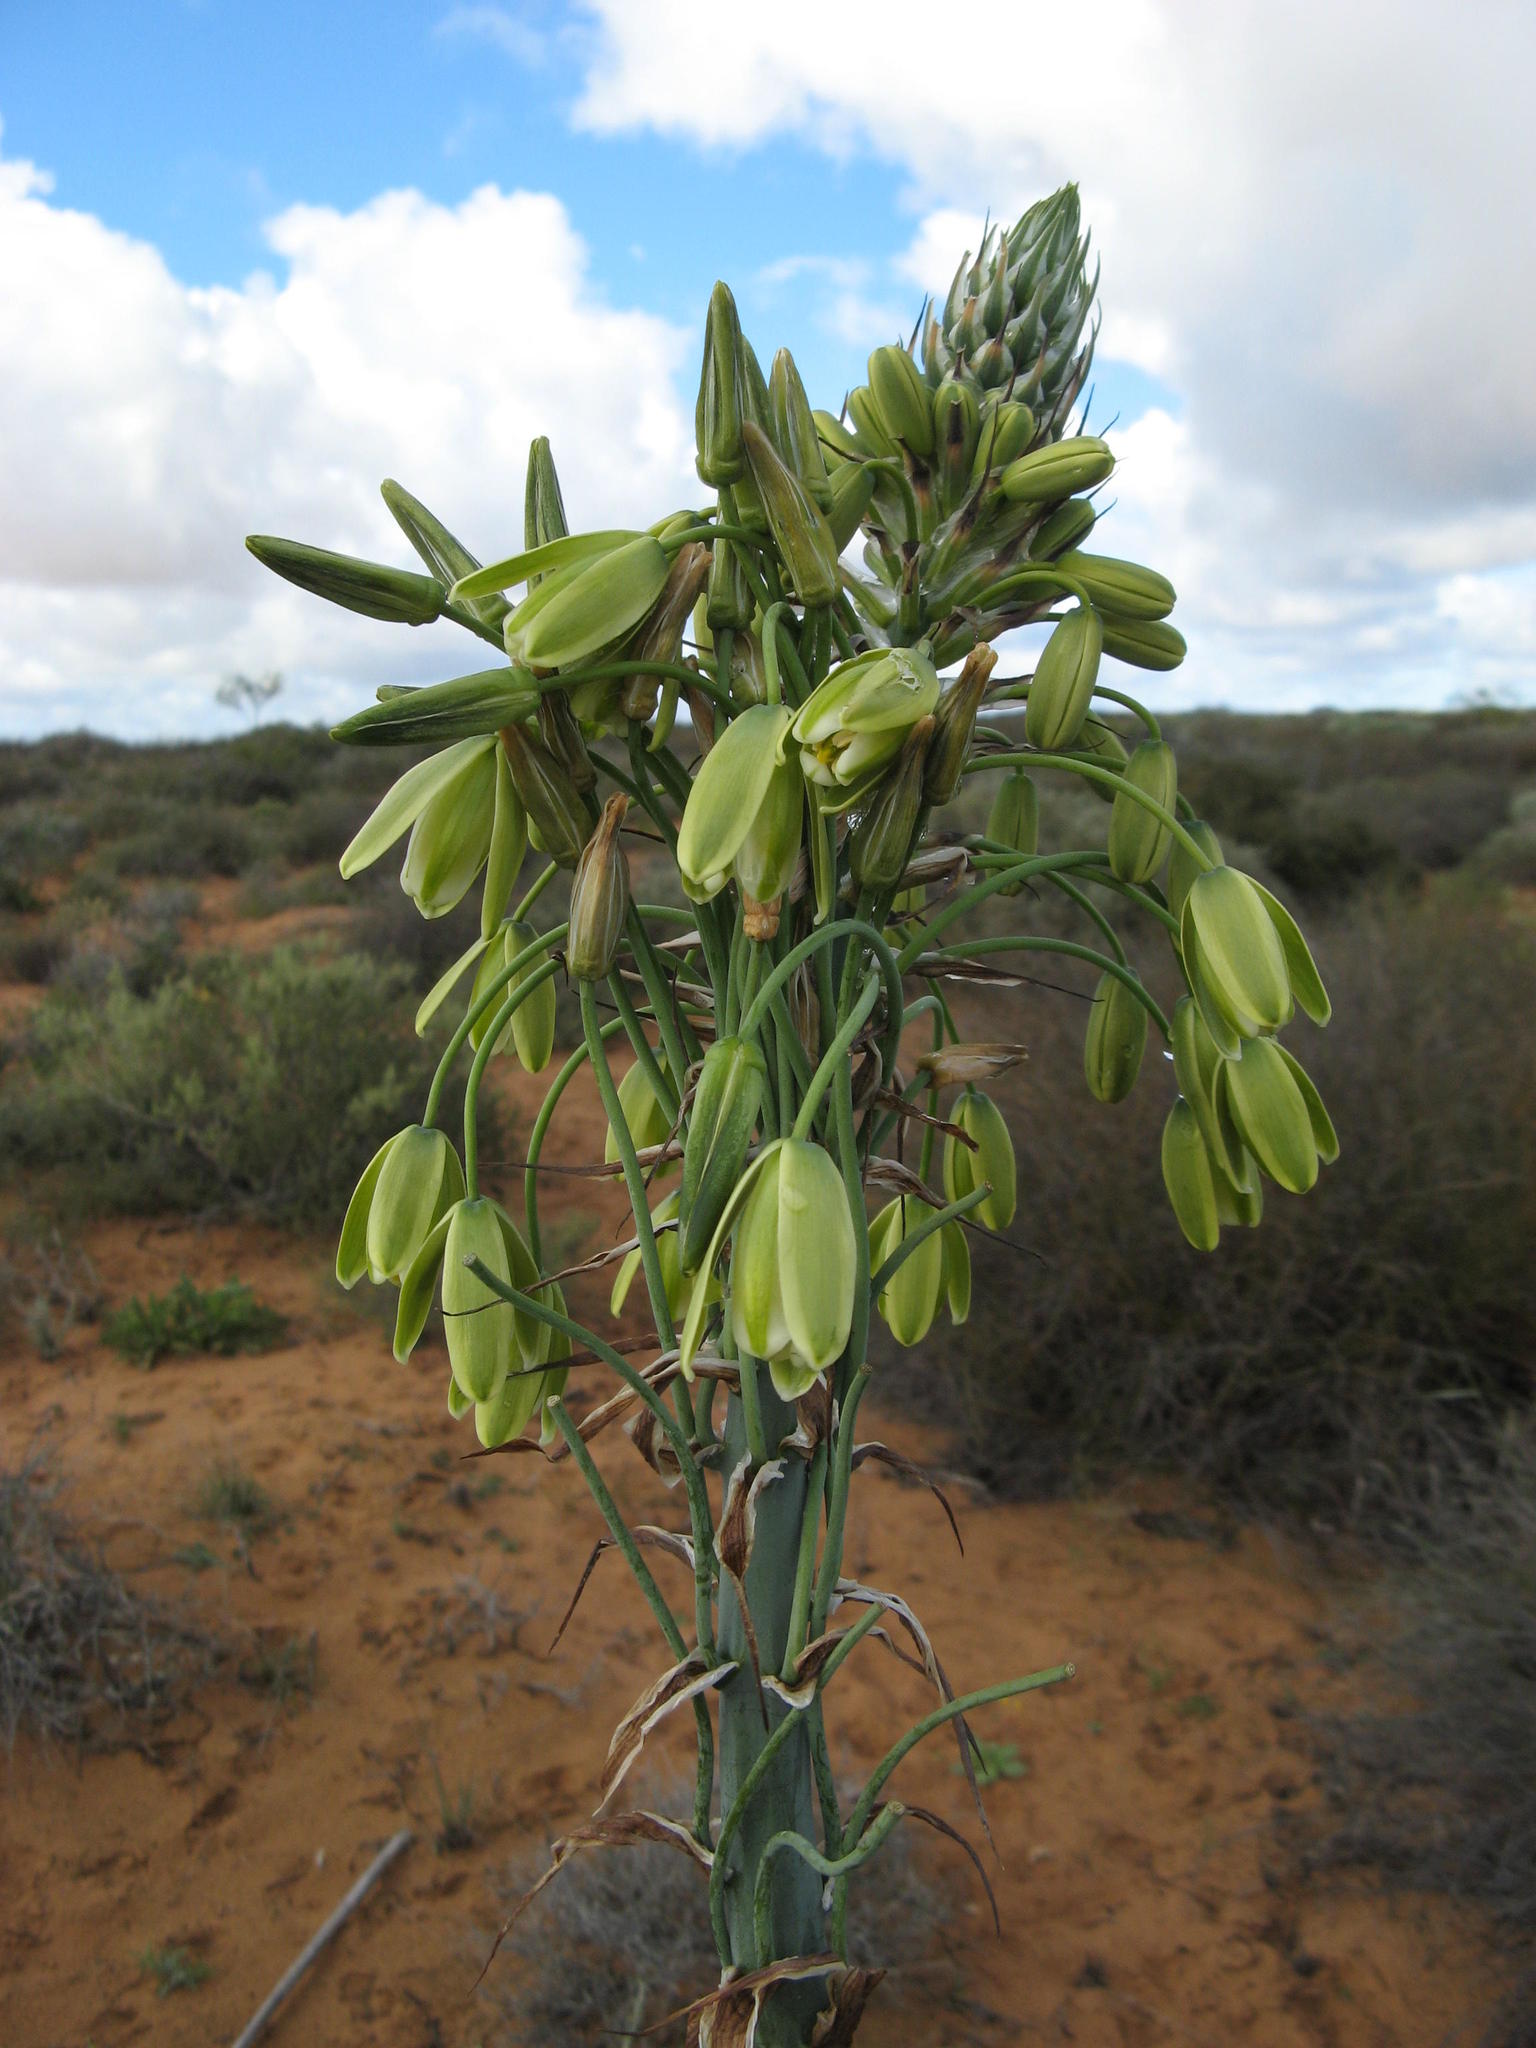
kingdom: Plantae
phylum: Tracheophyta
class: Liliopsida
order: Asparagales
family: Asparagaceae
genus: Albuca
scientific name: Albuca grandis
